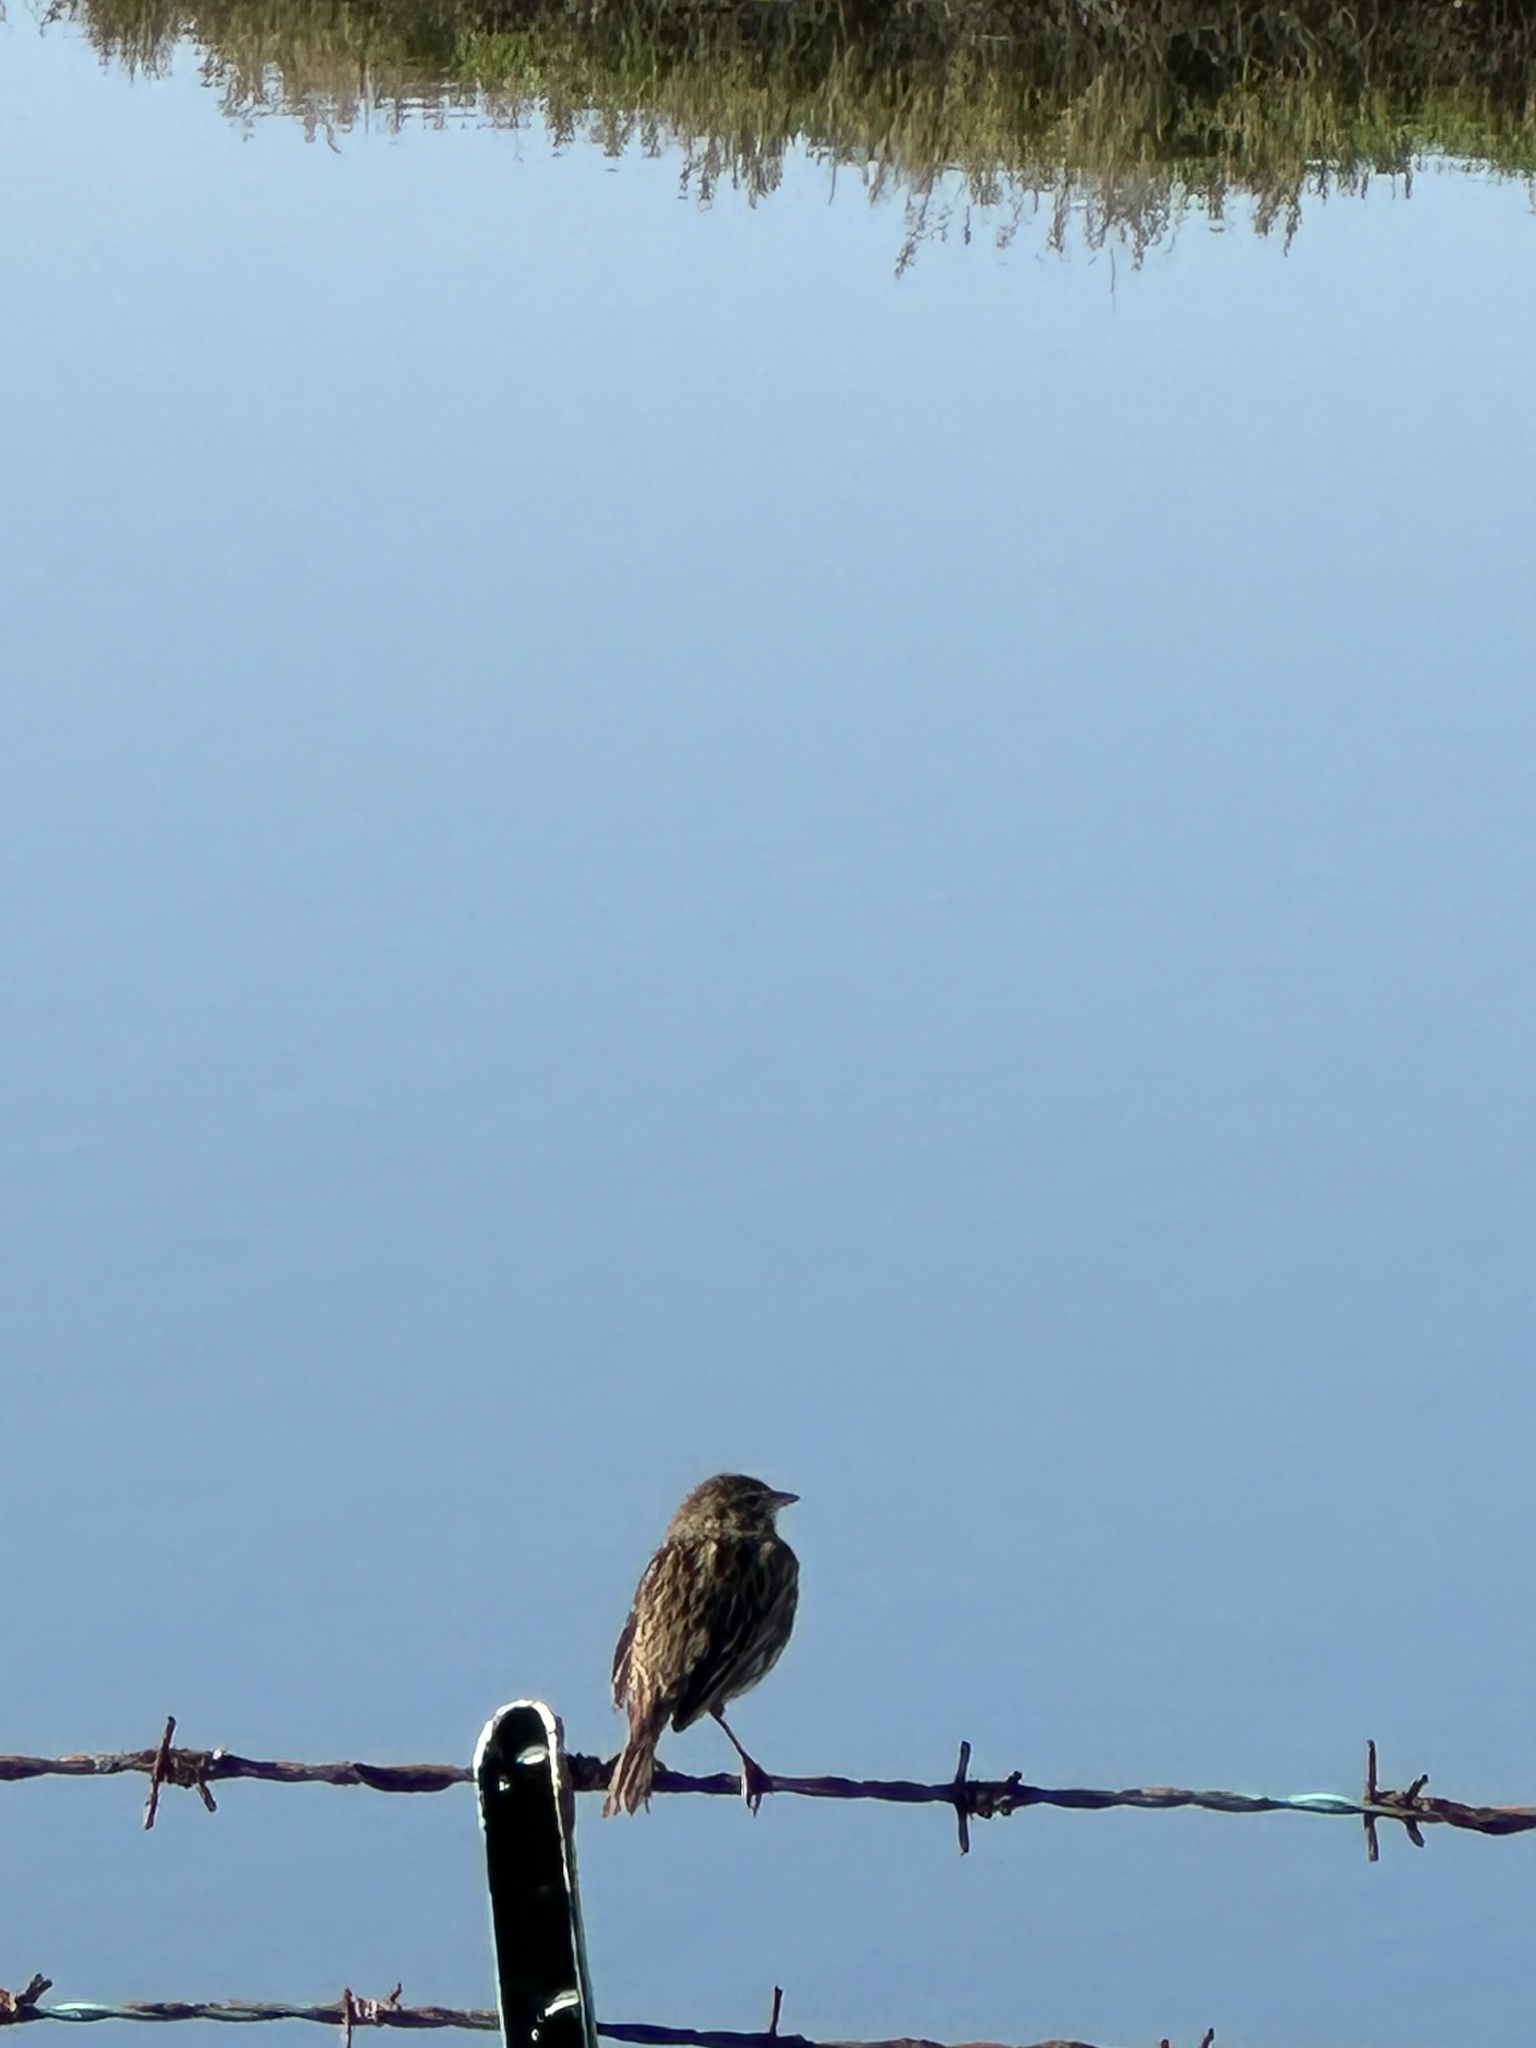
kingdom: Animalia
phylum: Chordata
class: Aves
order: Passeriformes
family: Passerellidae
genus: Passerculus
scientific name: Passerculus sandwichensis
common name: Savannah sparrow
